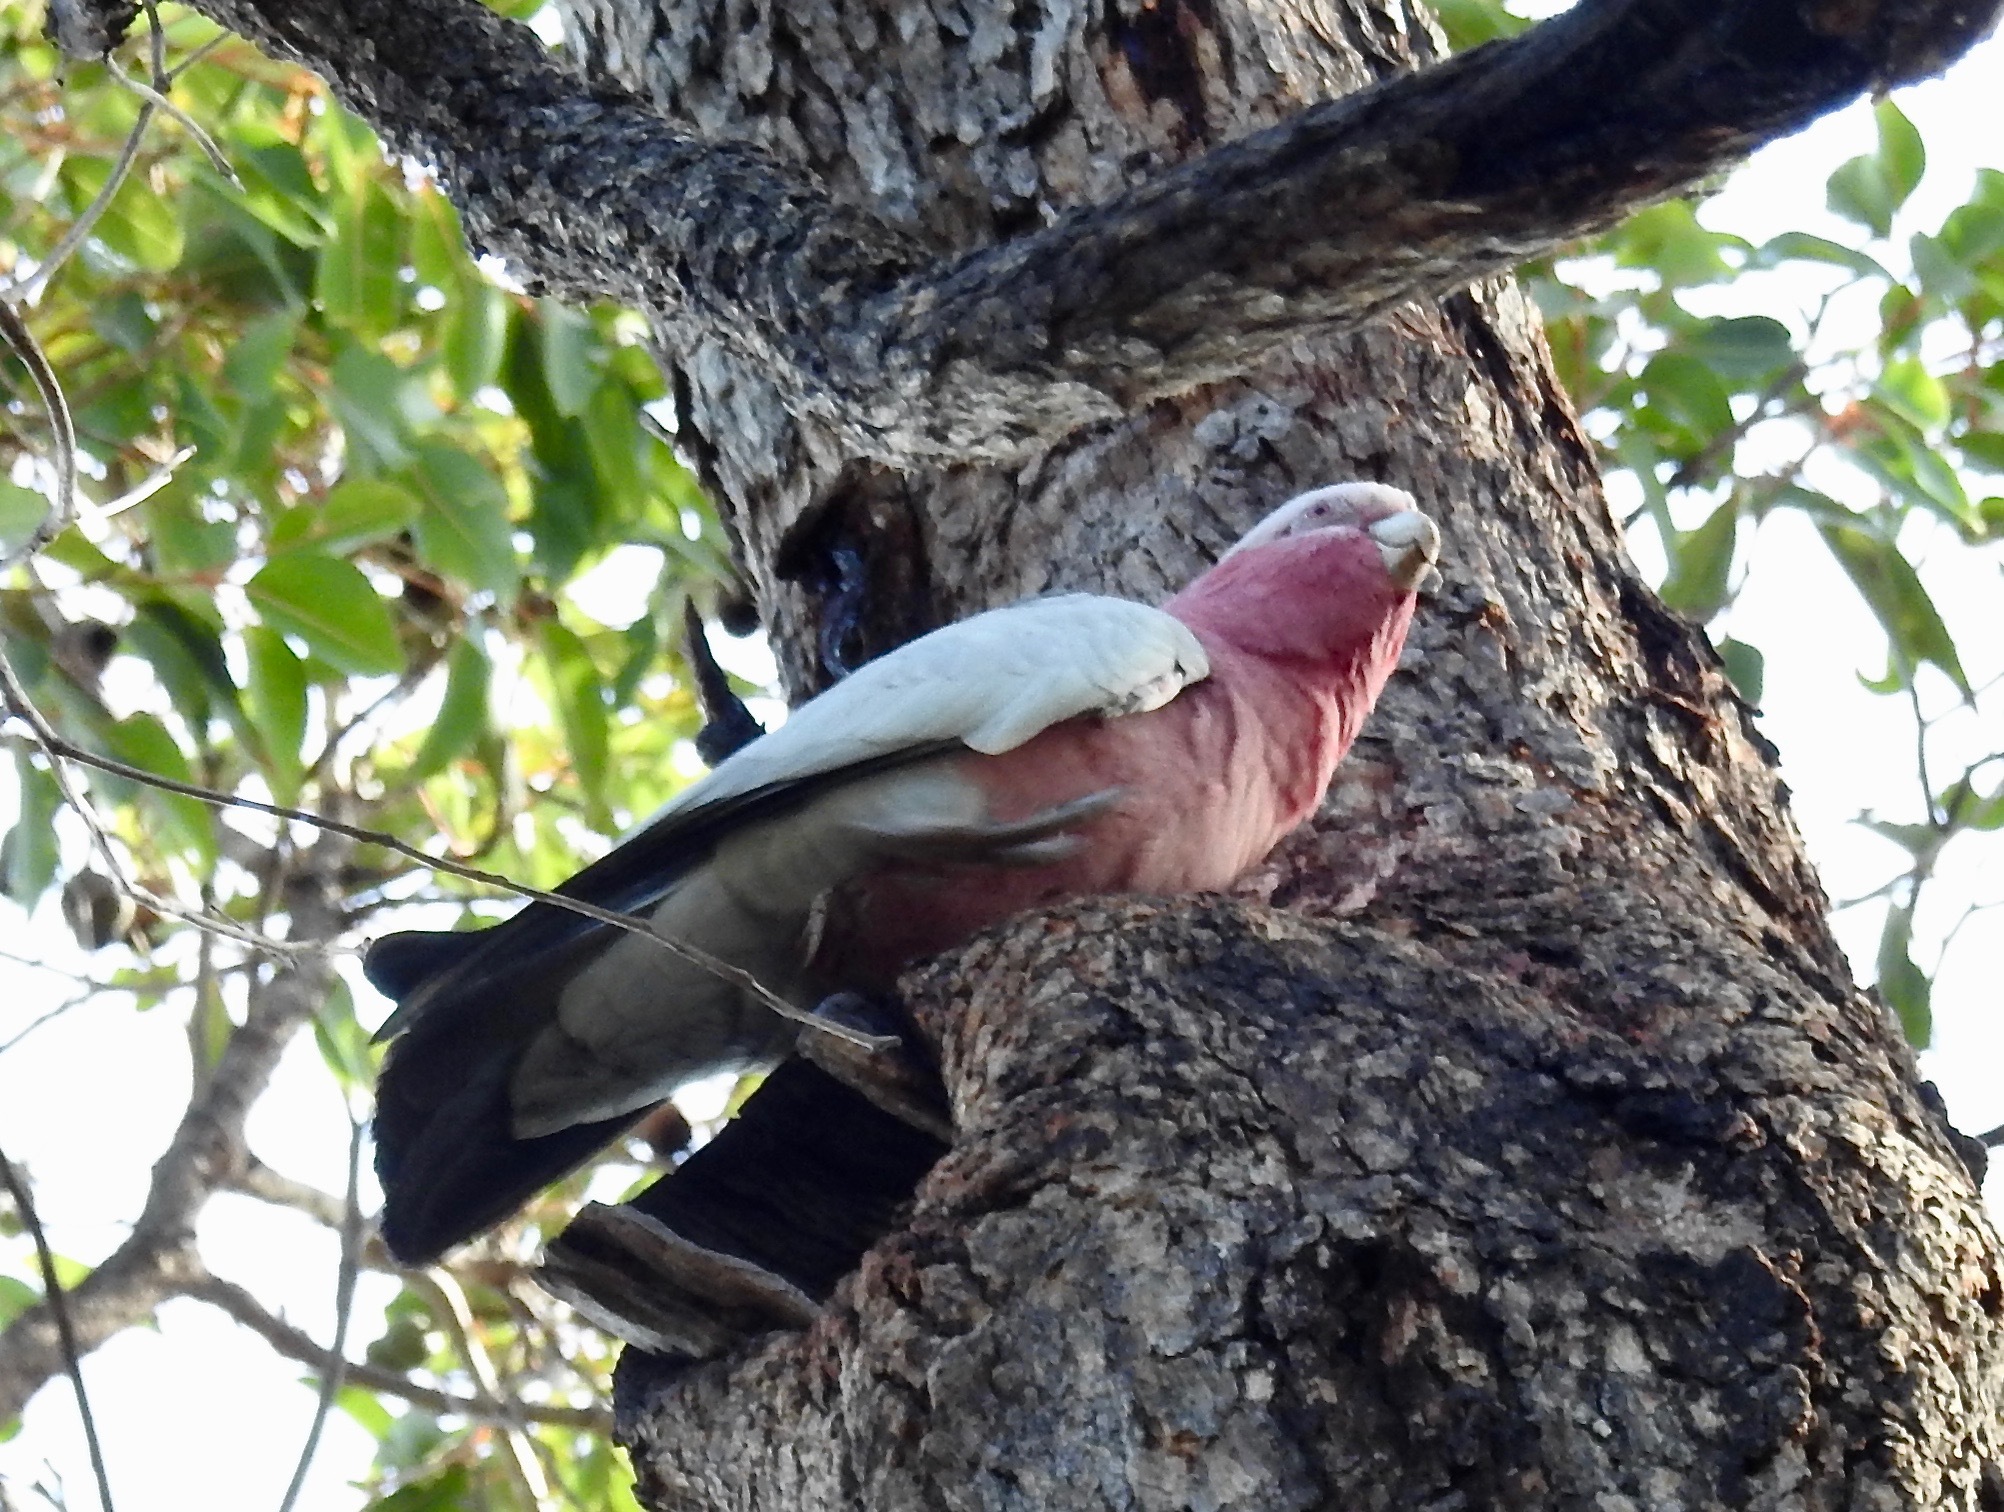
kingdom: Animalia
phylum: Chordata
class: Aves
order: Psittaciformes
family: Psittacidae
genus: Eolophus
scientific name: Eolophus roseicapilla
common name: Galah
